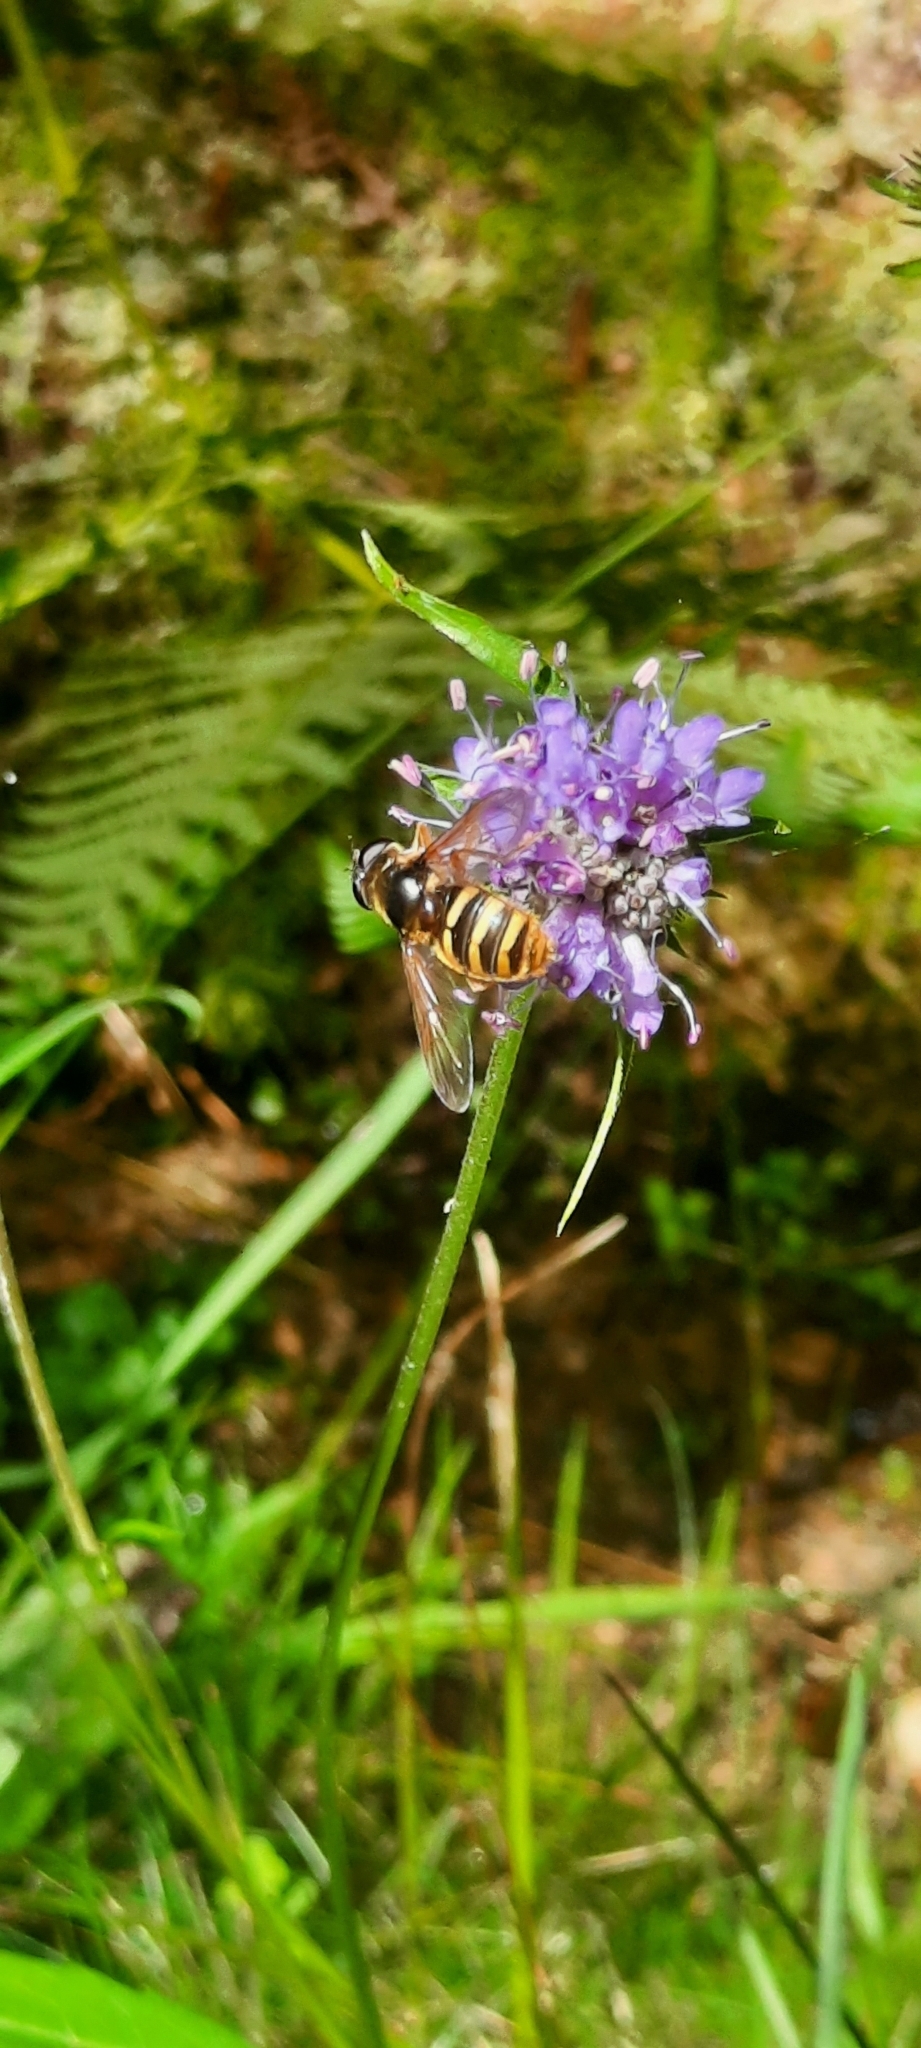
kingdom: Animalia
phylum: Arthropoda
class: Insecta
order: Diptera
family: Syrphidae
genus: Sericomyia
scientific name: Sericomyia silentis
